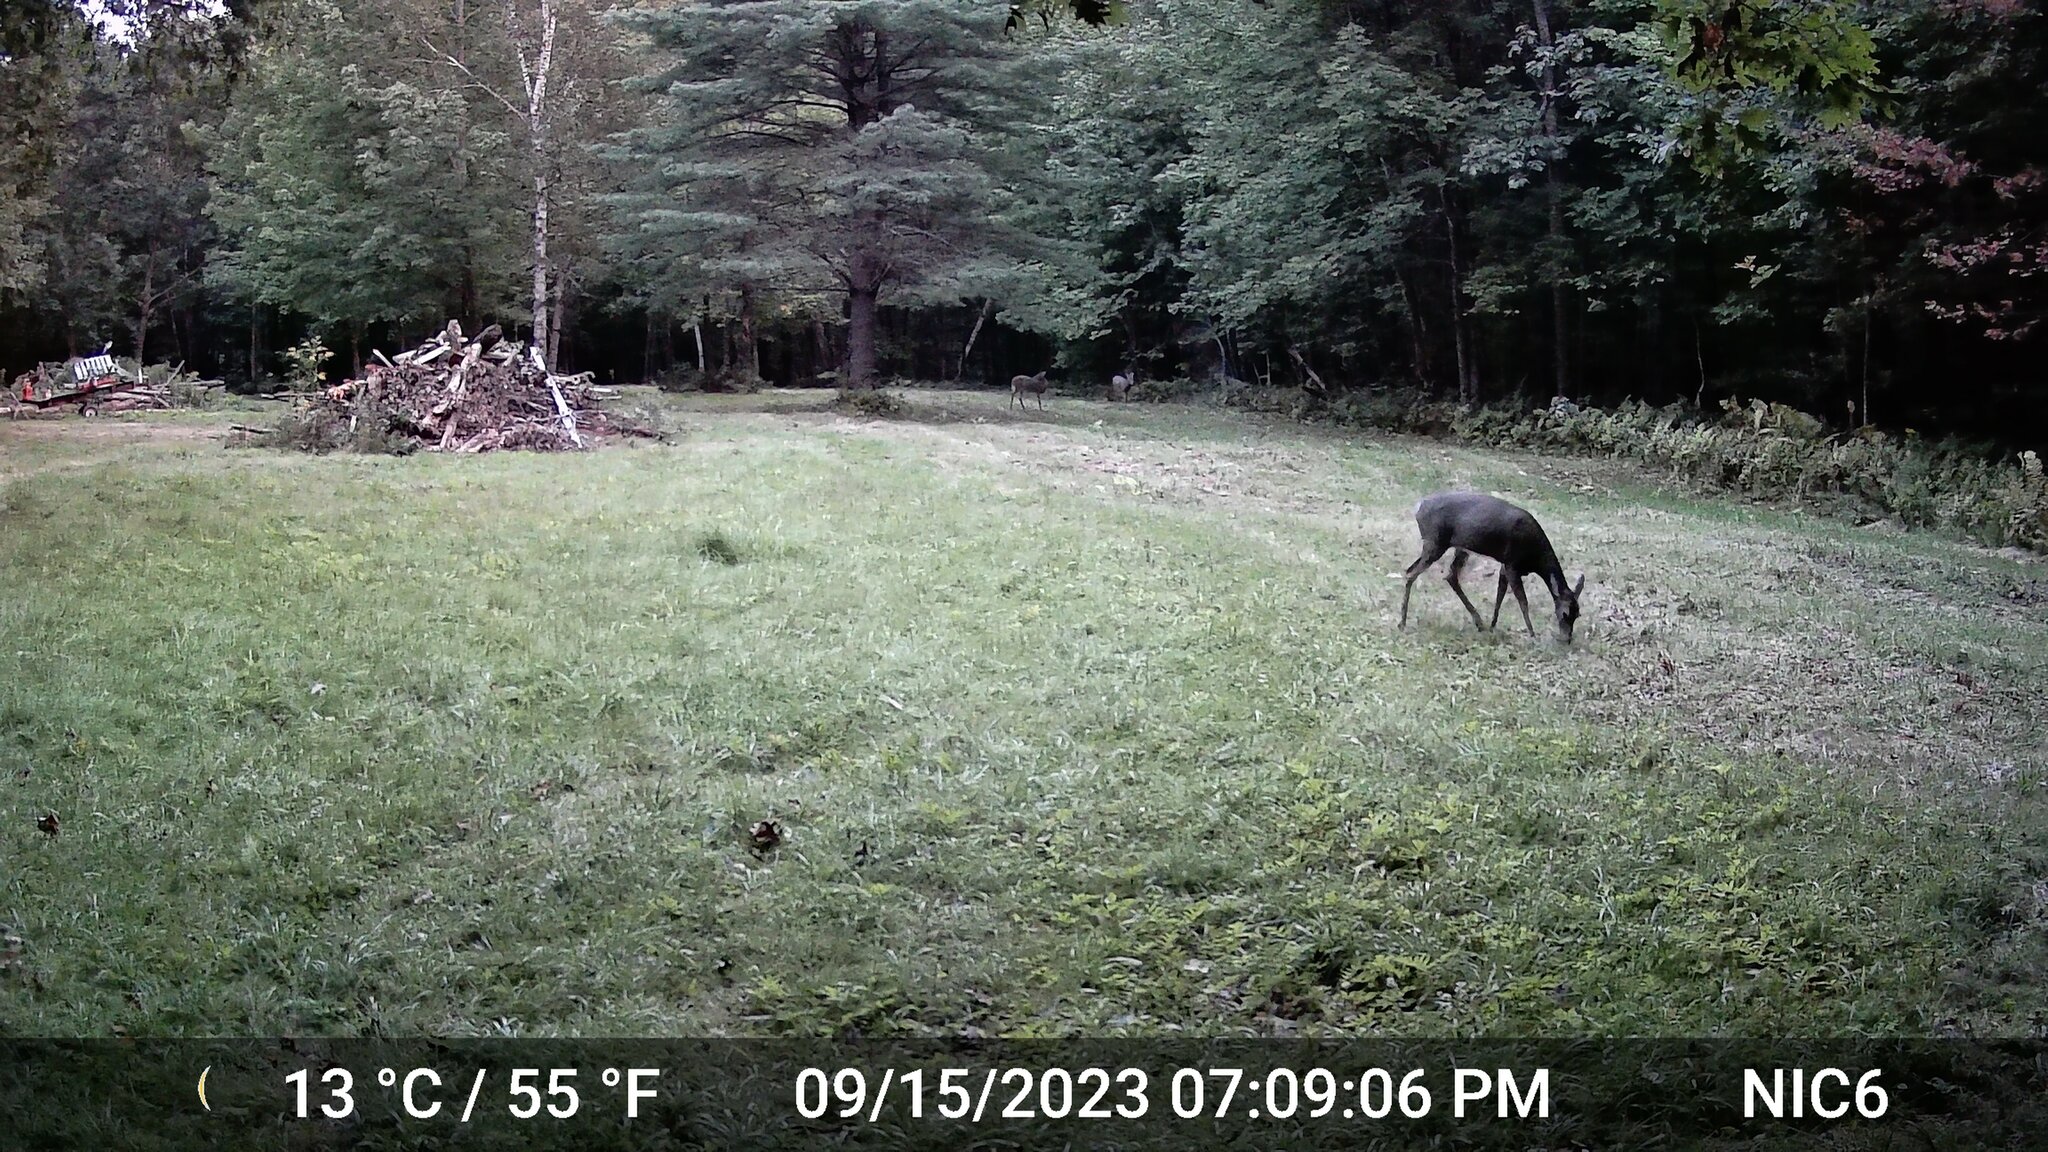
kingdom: Animalia
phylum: Chordata
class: Mammalia
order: Artiodactyla
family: Cervidae
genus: Odocoileus
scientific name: Odocoileus virginianus
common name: White-tailed deer
